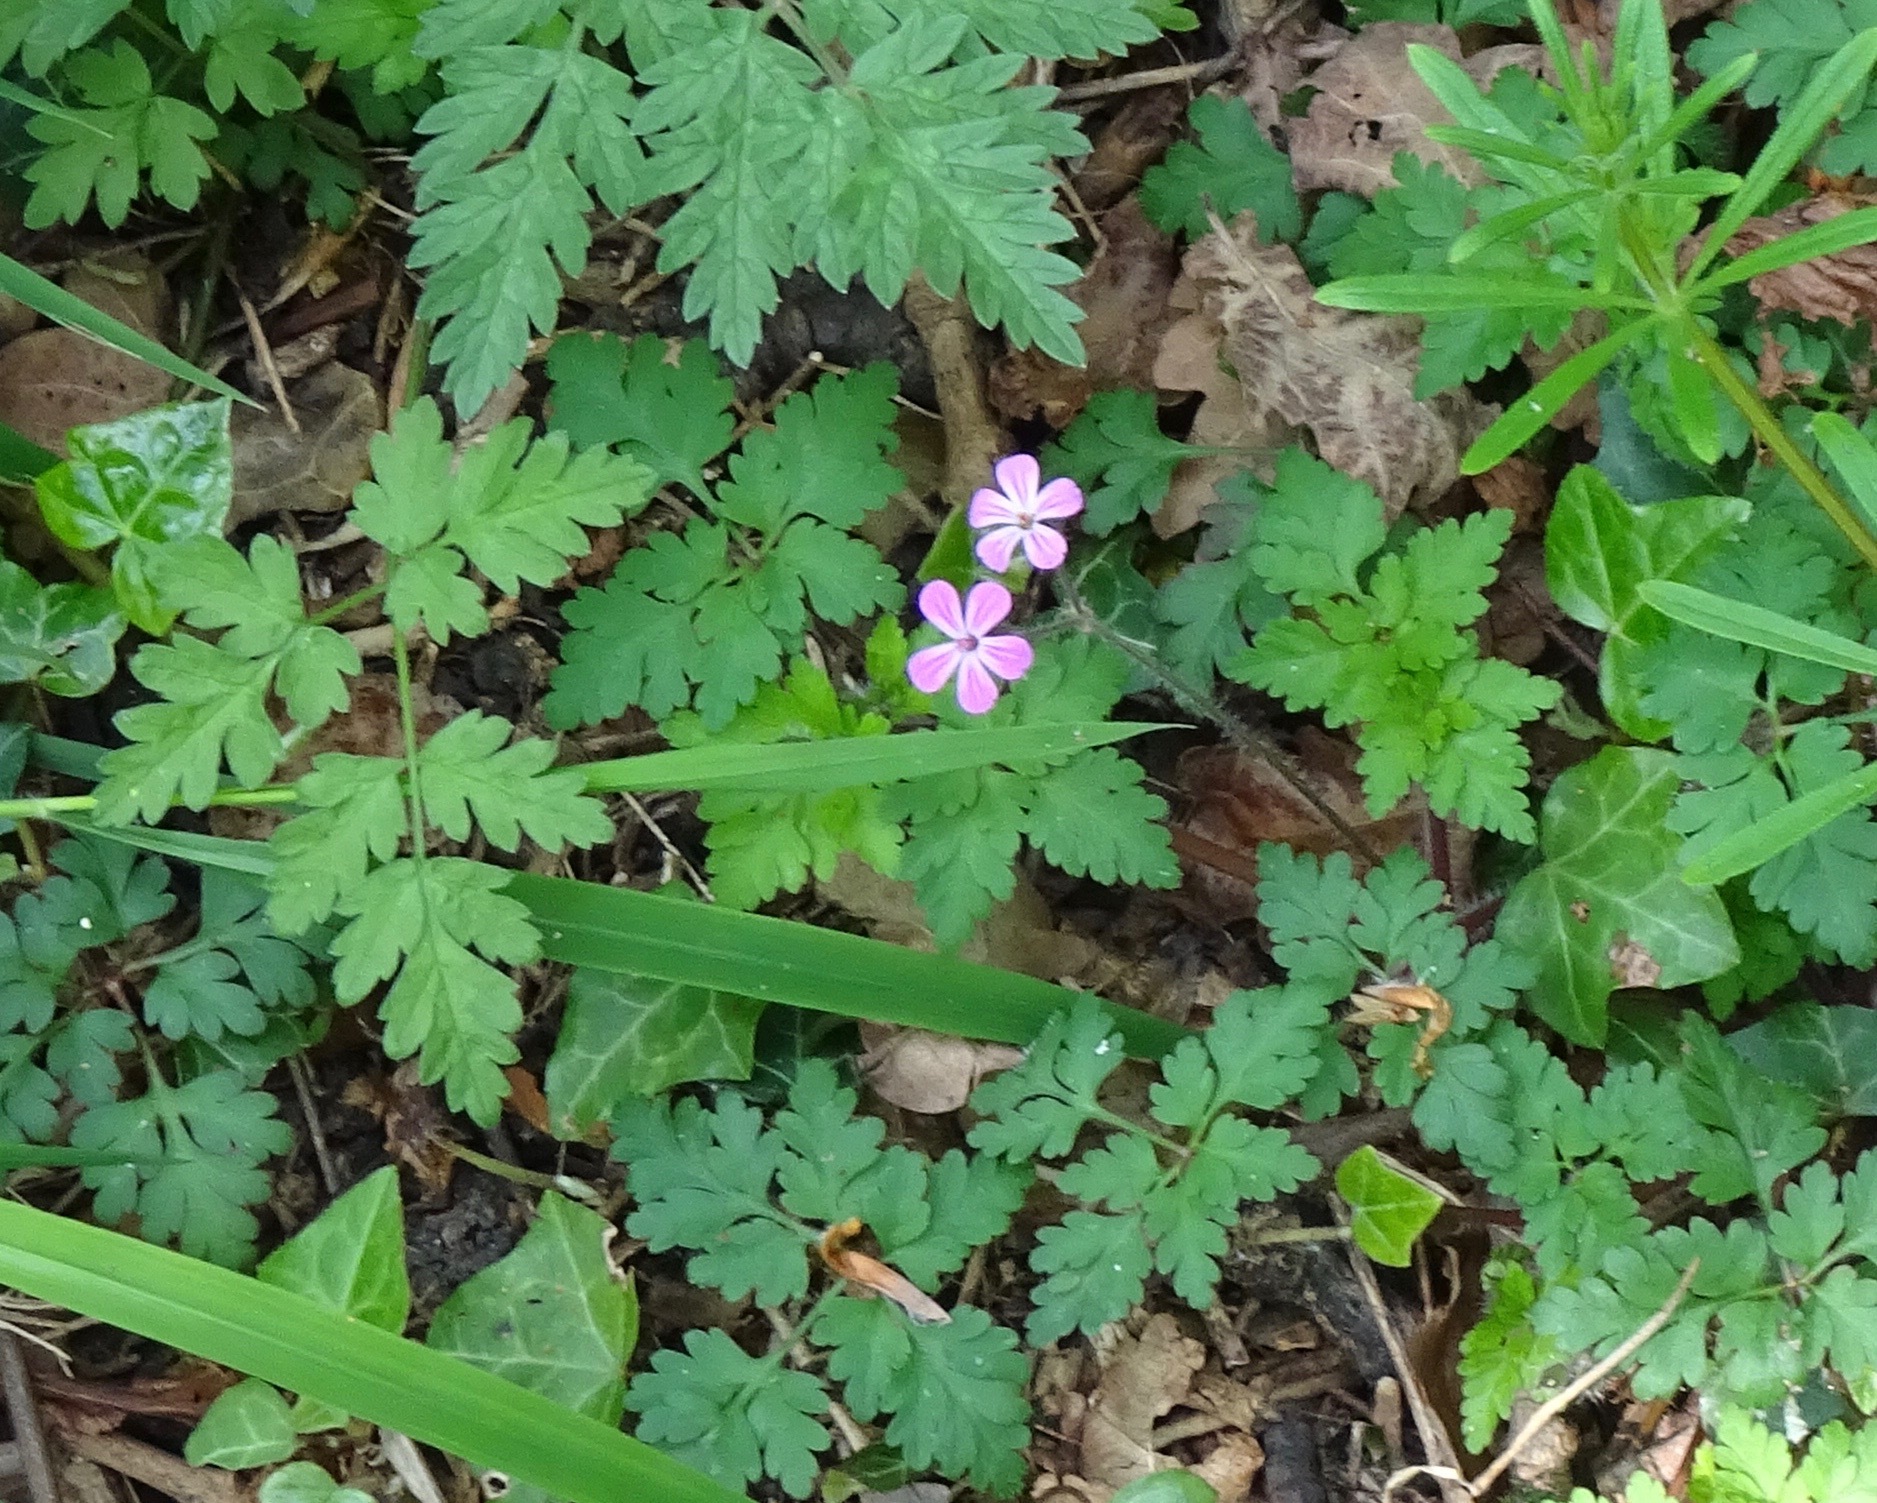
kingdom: Plantae
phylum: Tracheophyta
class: Magnoliopsida
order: Geraniales
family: Geraniaceae
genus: Geranium
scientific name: Geranium robertianum
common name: Herb-robert
